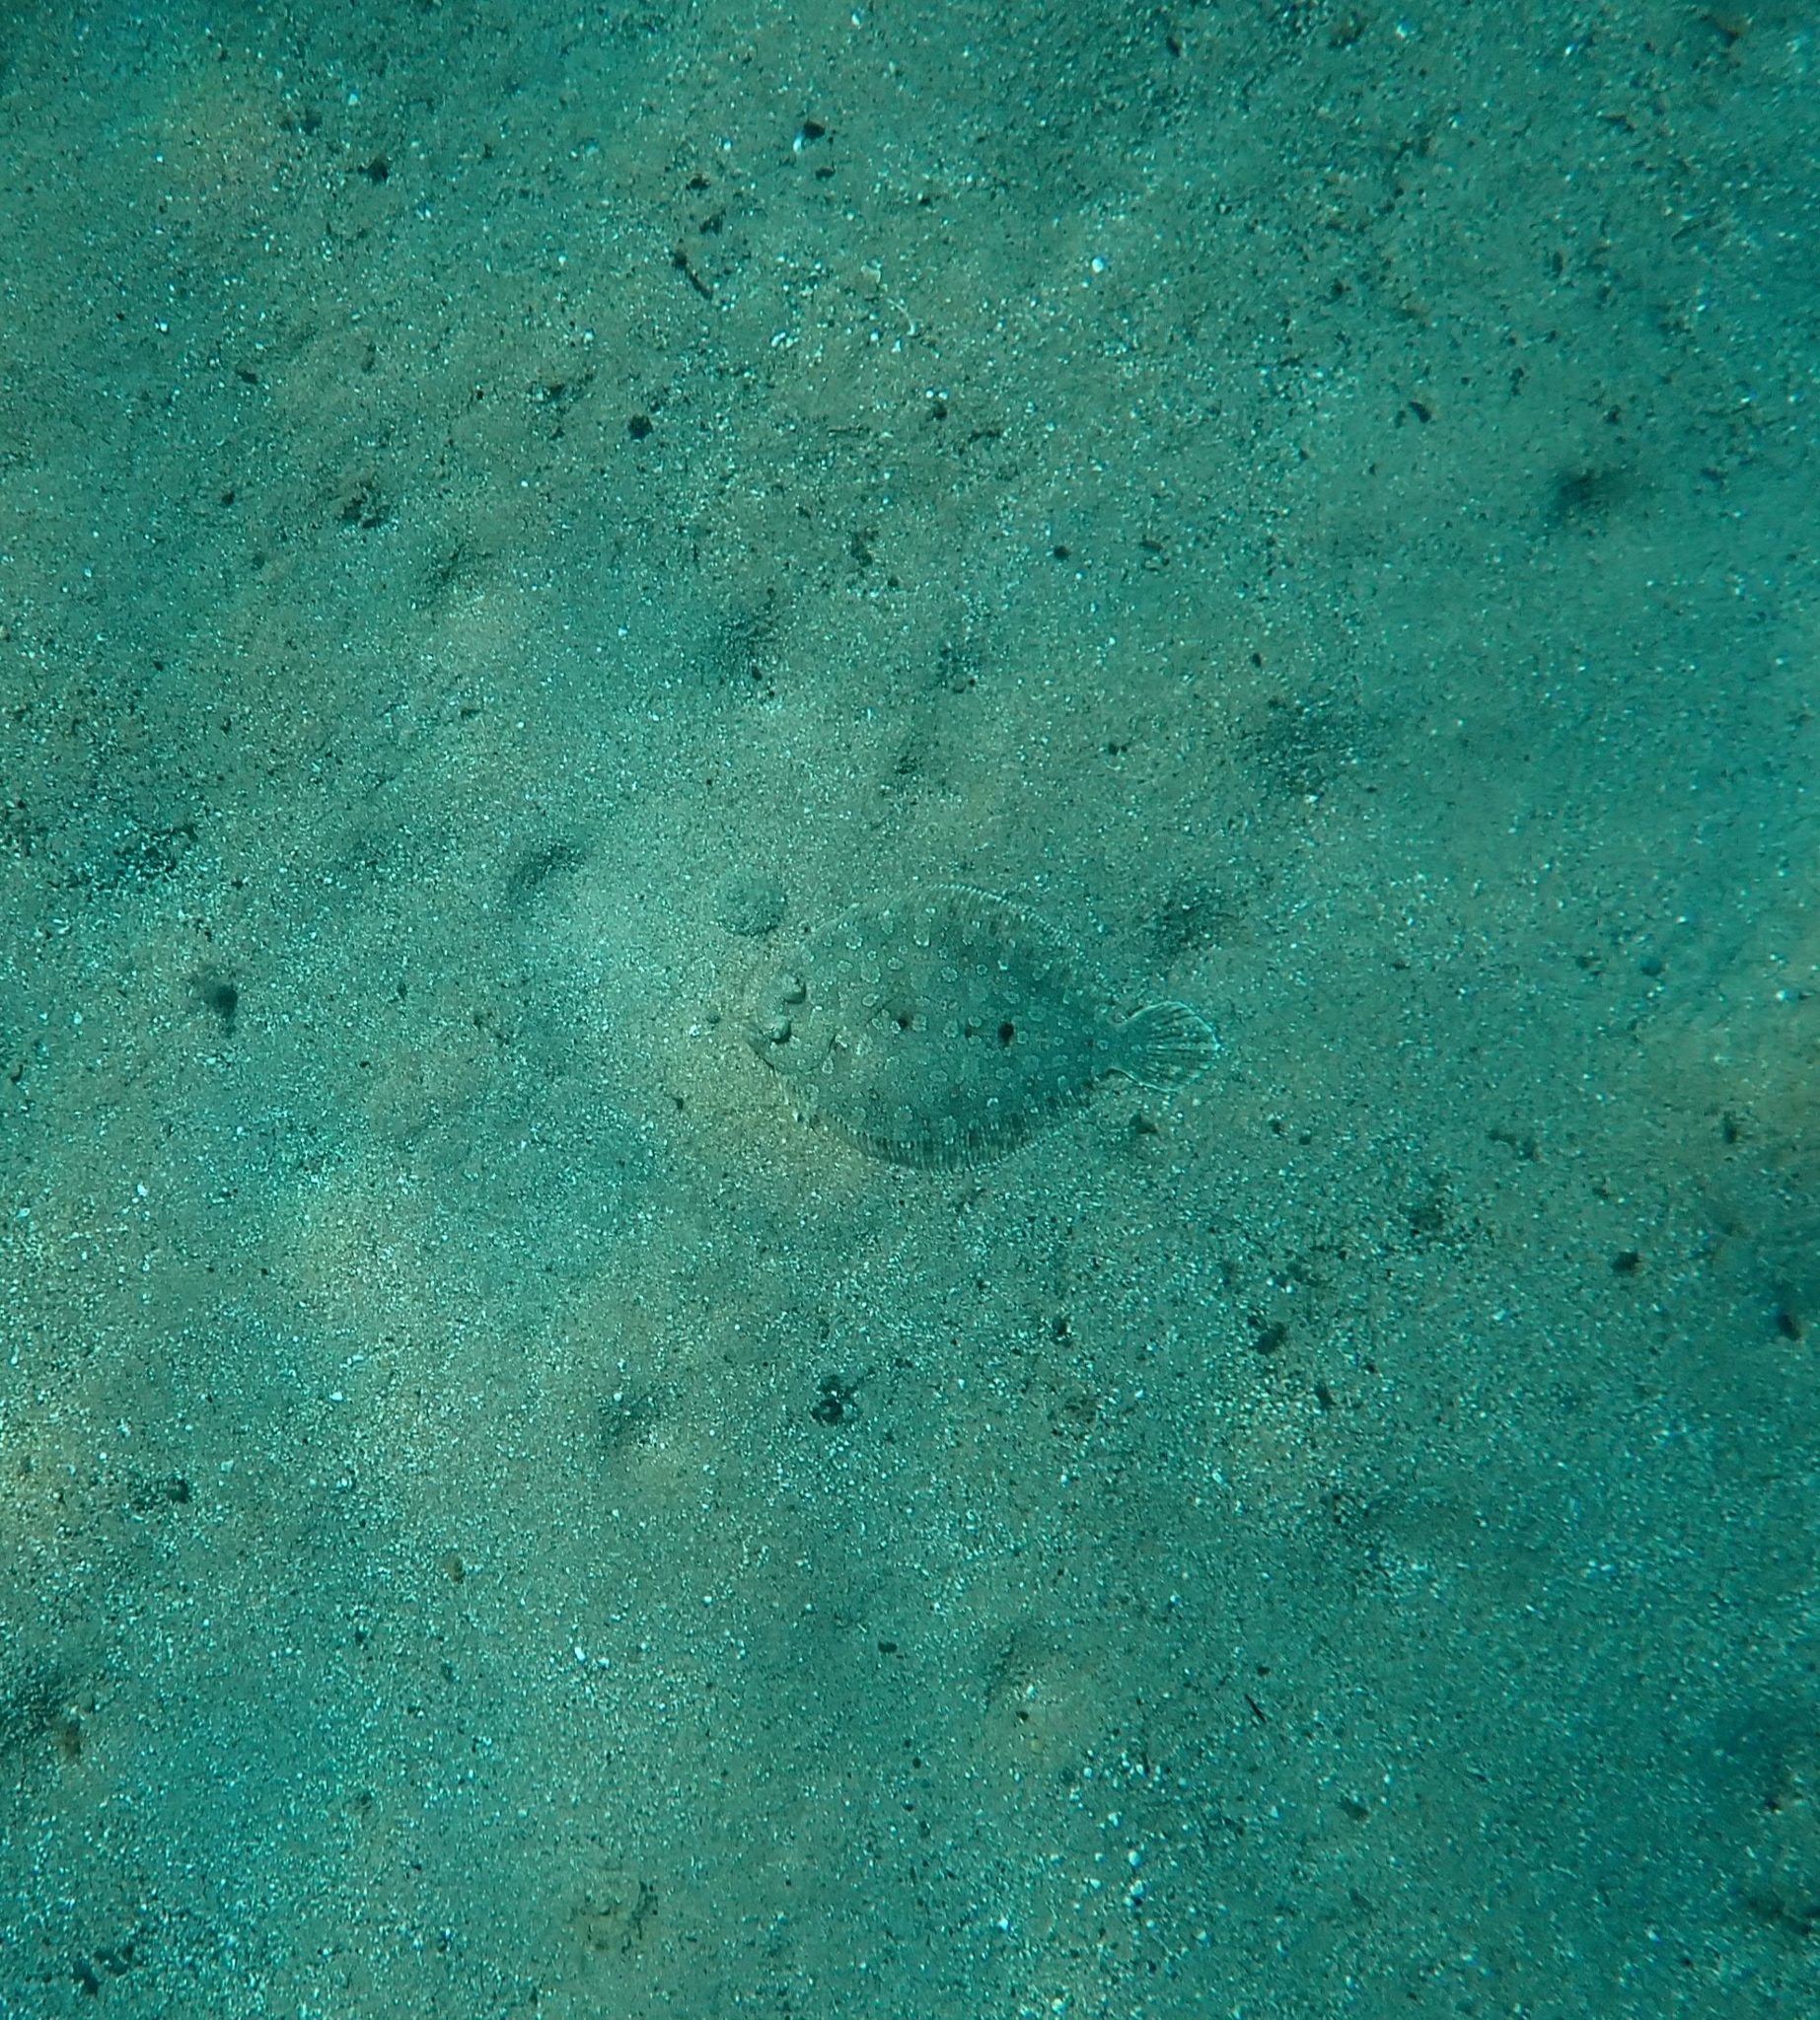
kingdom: Animalia
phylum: Chordata
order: Pleuronectiformes
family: Bothidae
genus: Bothus
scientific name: Bothus podas
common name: Wide-eyed flounder
